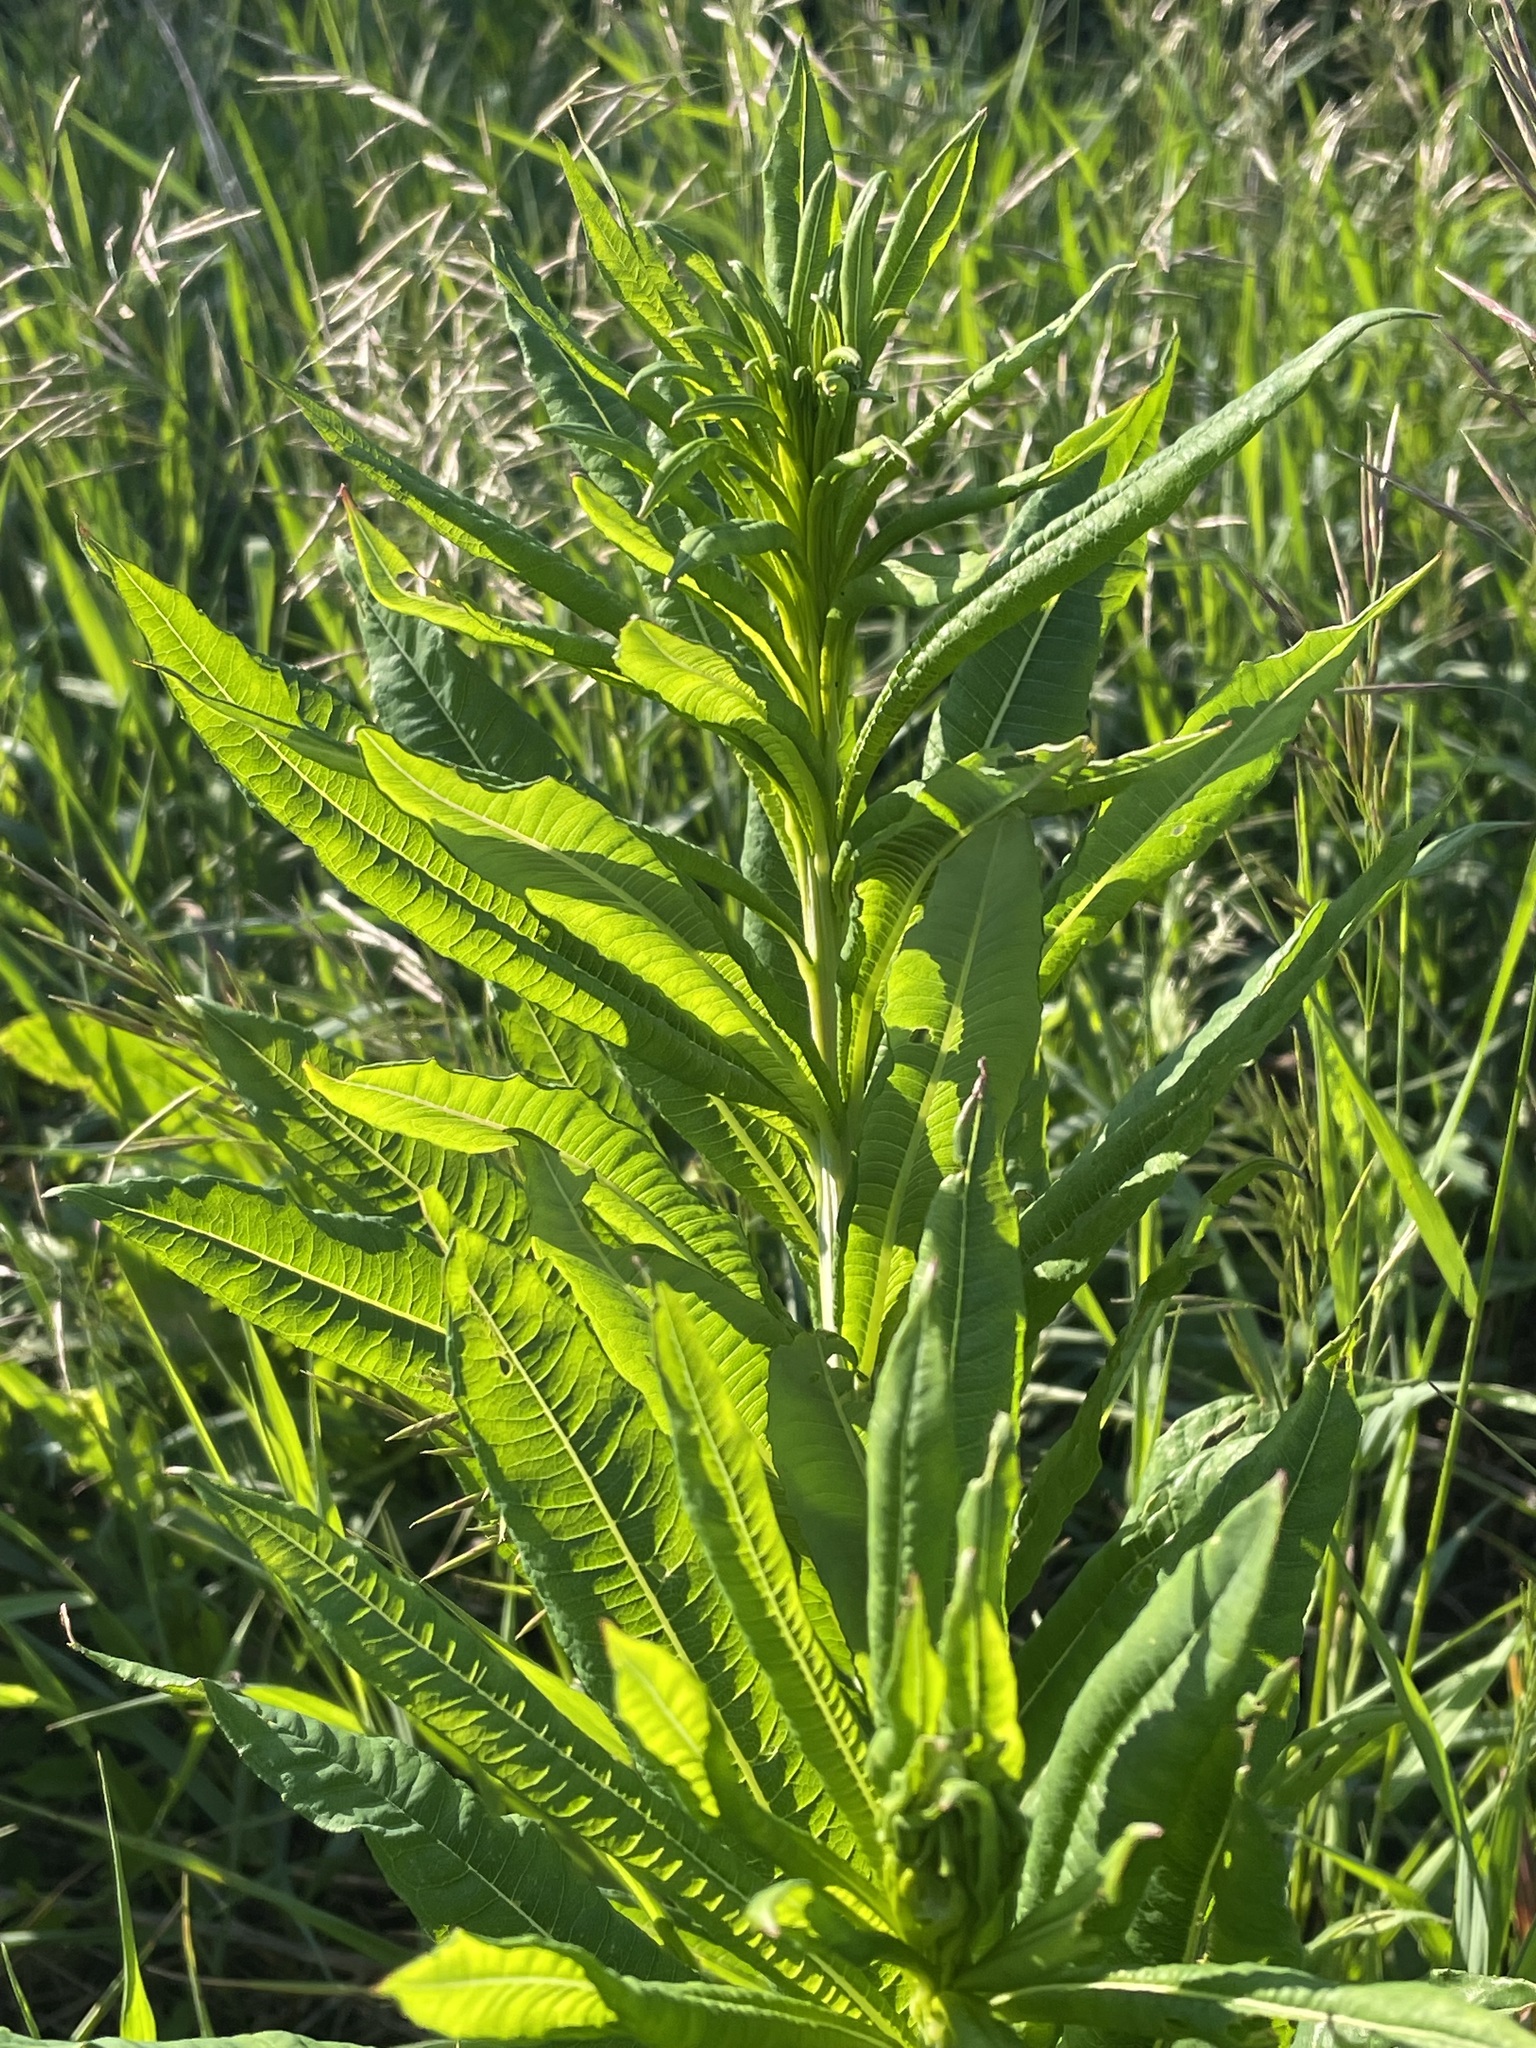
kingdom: Plantae
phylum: Tracheophyta
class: Magnoliopsida
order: Myrtales
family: Onagraceae
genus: Chamaenerion
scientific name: Chamaenerion angustifolium
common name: Fireweed
